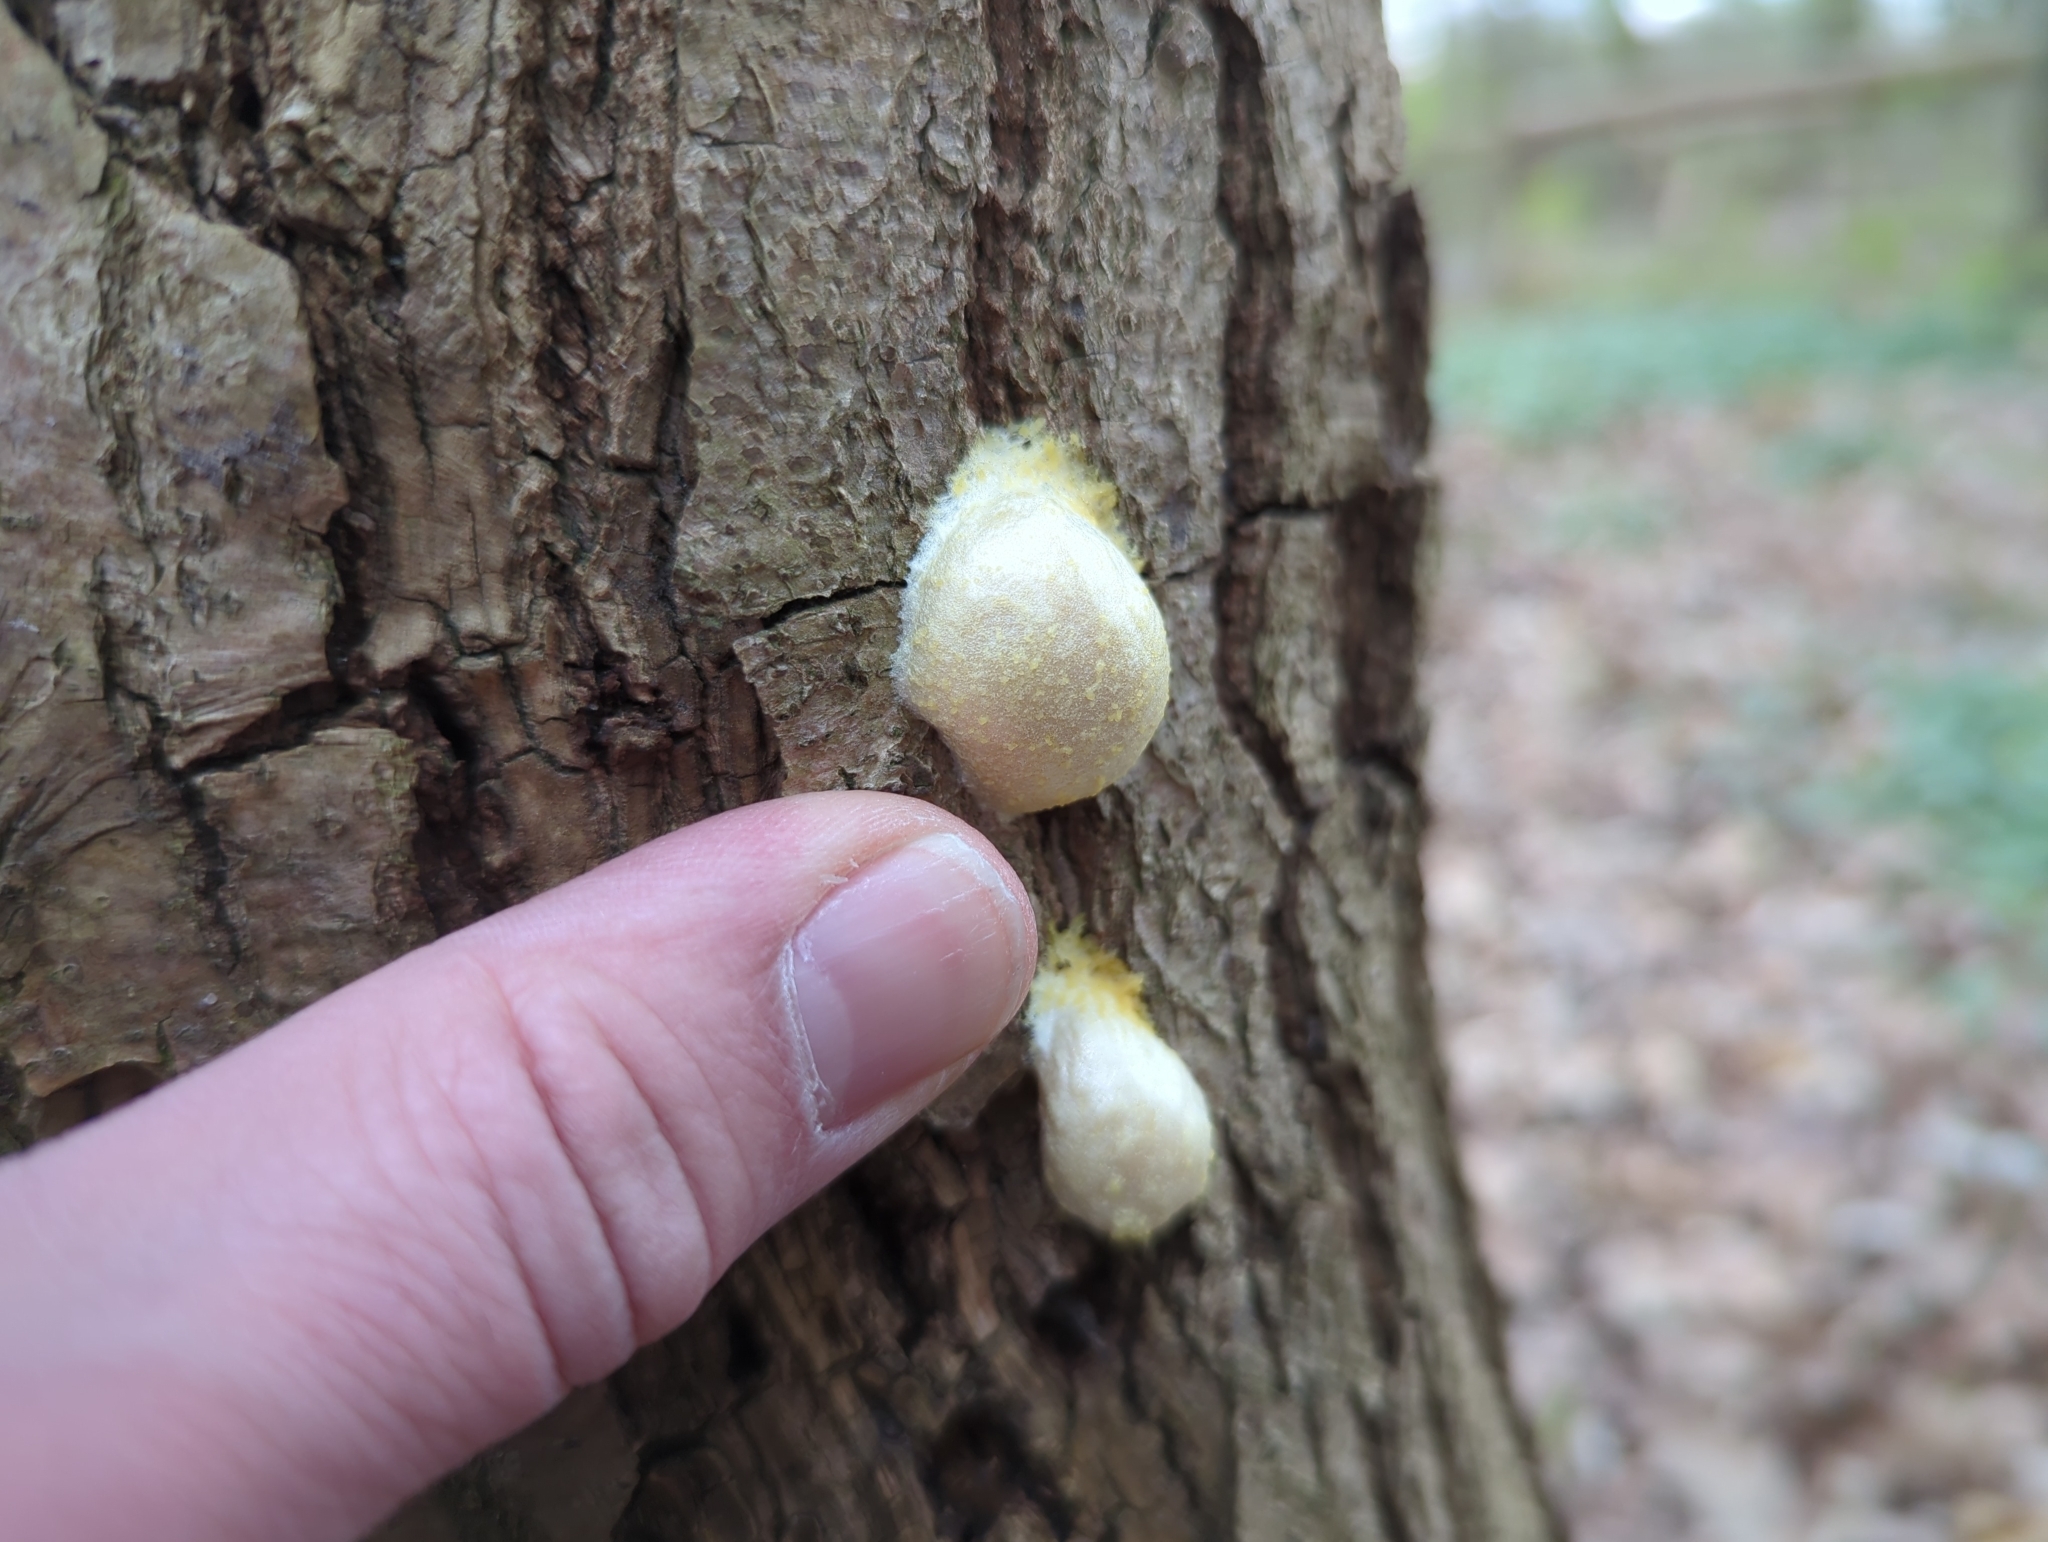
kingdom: Protozoa
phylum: Mycetozoa
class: Myxomycetes
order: Cribrariales
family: Tubiferaceae
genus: Reticularia
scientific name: Reticularia lycoperdon
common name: False puffball
